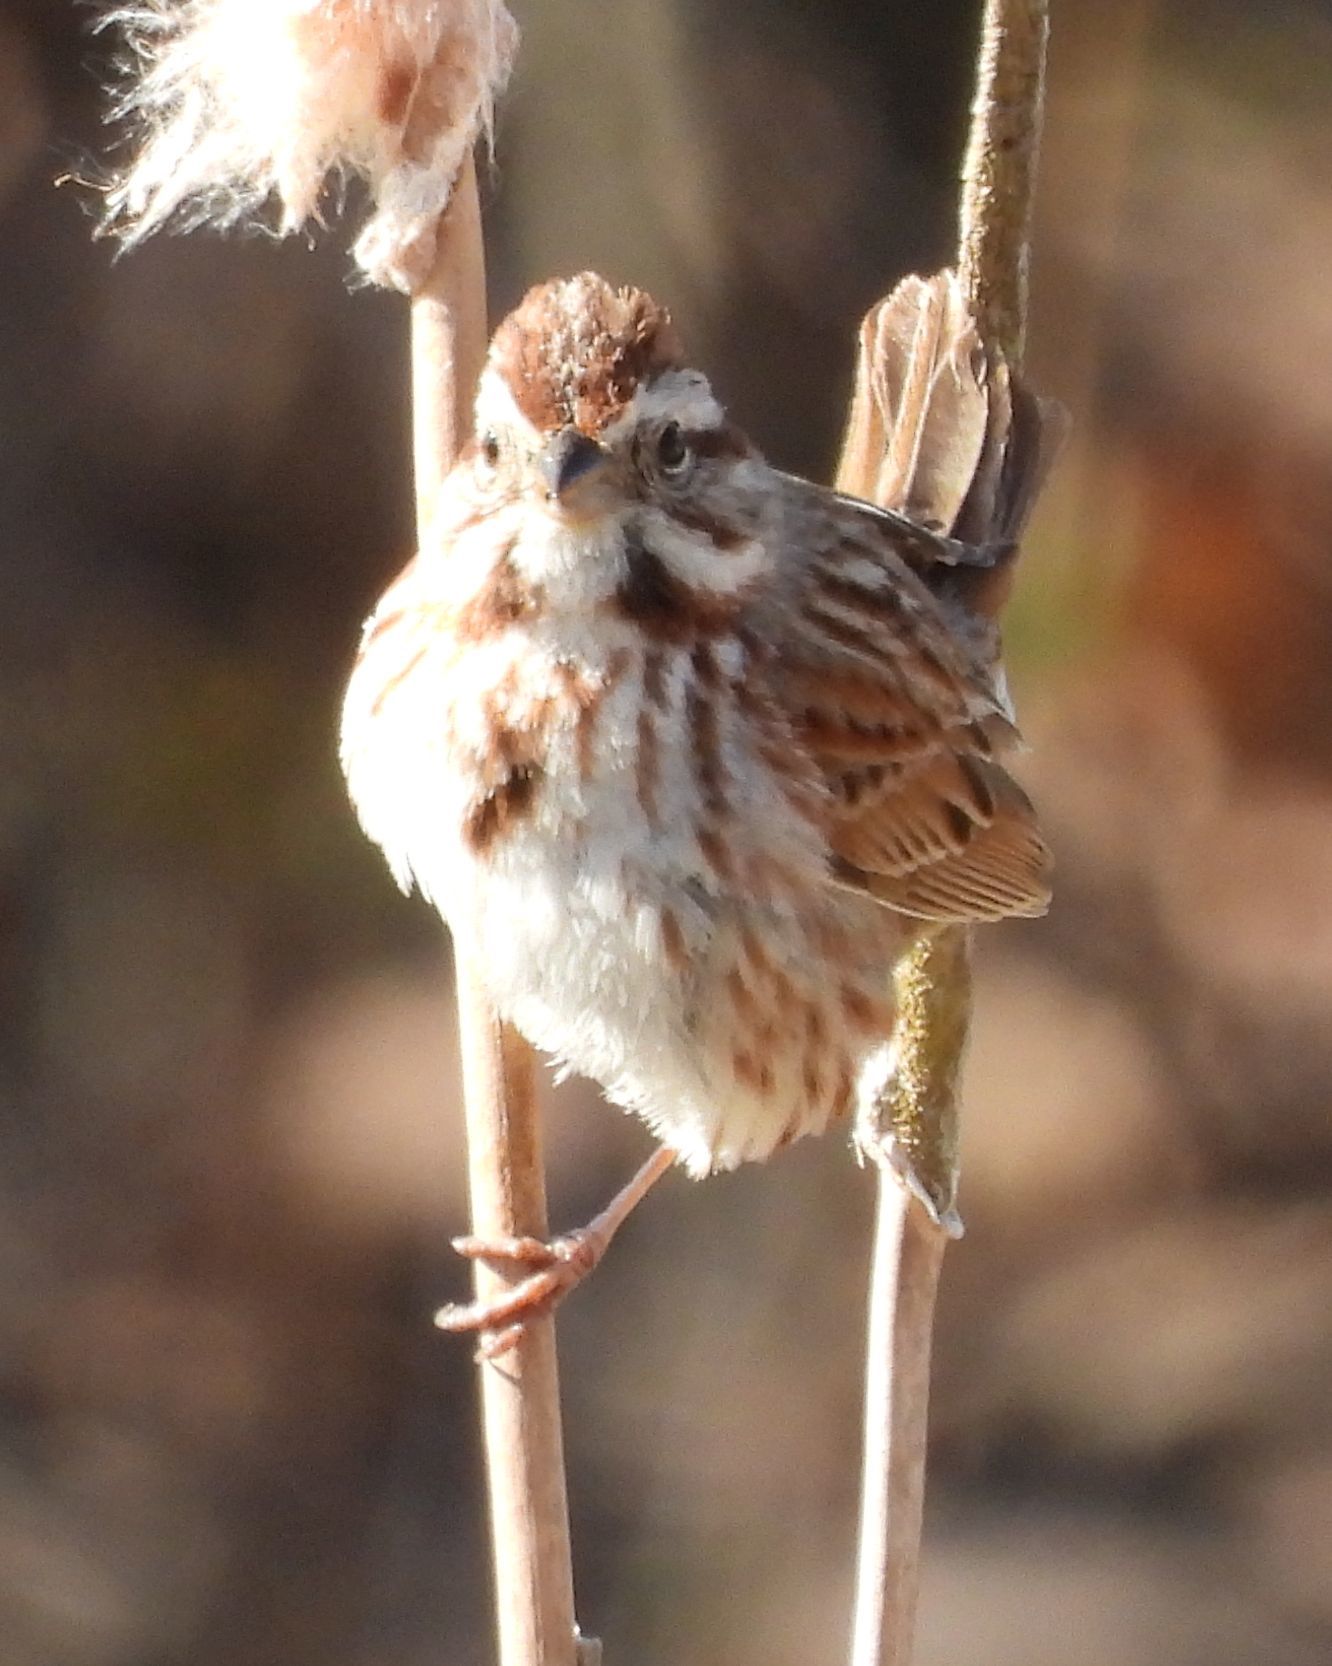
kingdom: Animalia
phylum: Chordata
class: Aves
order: Passeriformes
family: Passerellidae
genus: Melospiza
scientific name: Melospiza melodia
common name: Song sparrow
